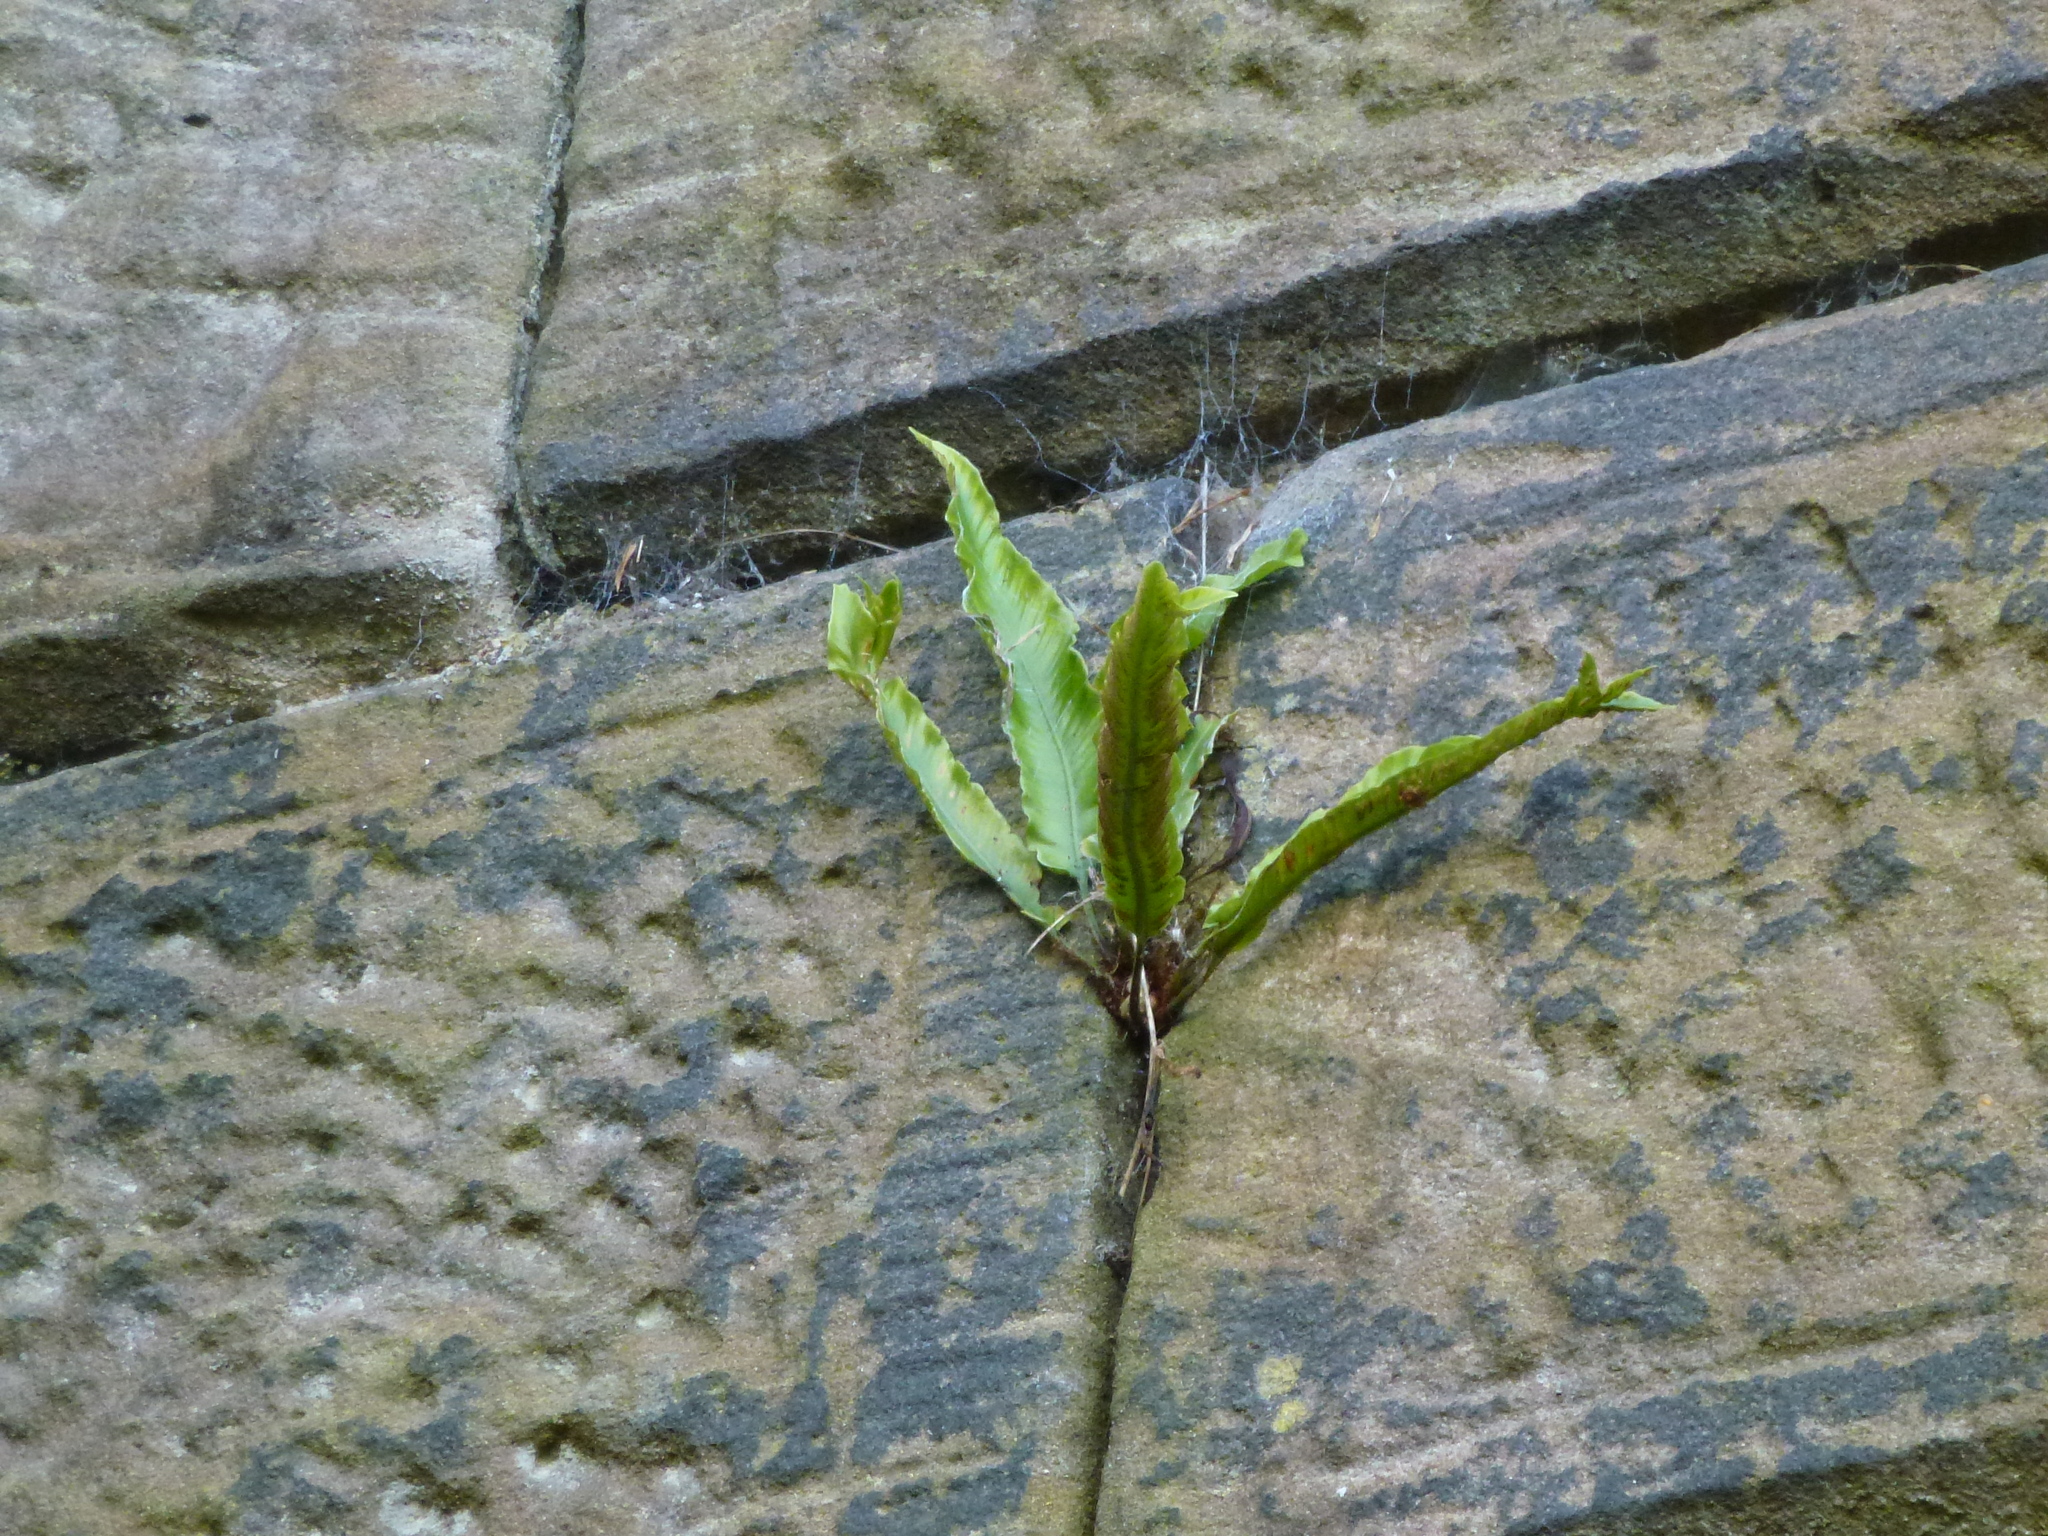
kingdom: Plantae
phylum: Tracheophyta
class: Polypodiopsida
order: Polypodiales
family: Aspleniaceae
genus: Asplenium
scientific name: Asplenium scolopendrium
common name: Hart's-tongue fern
